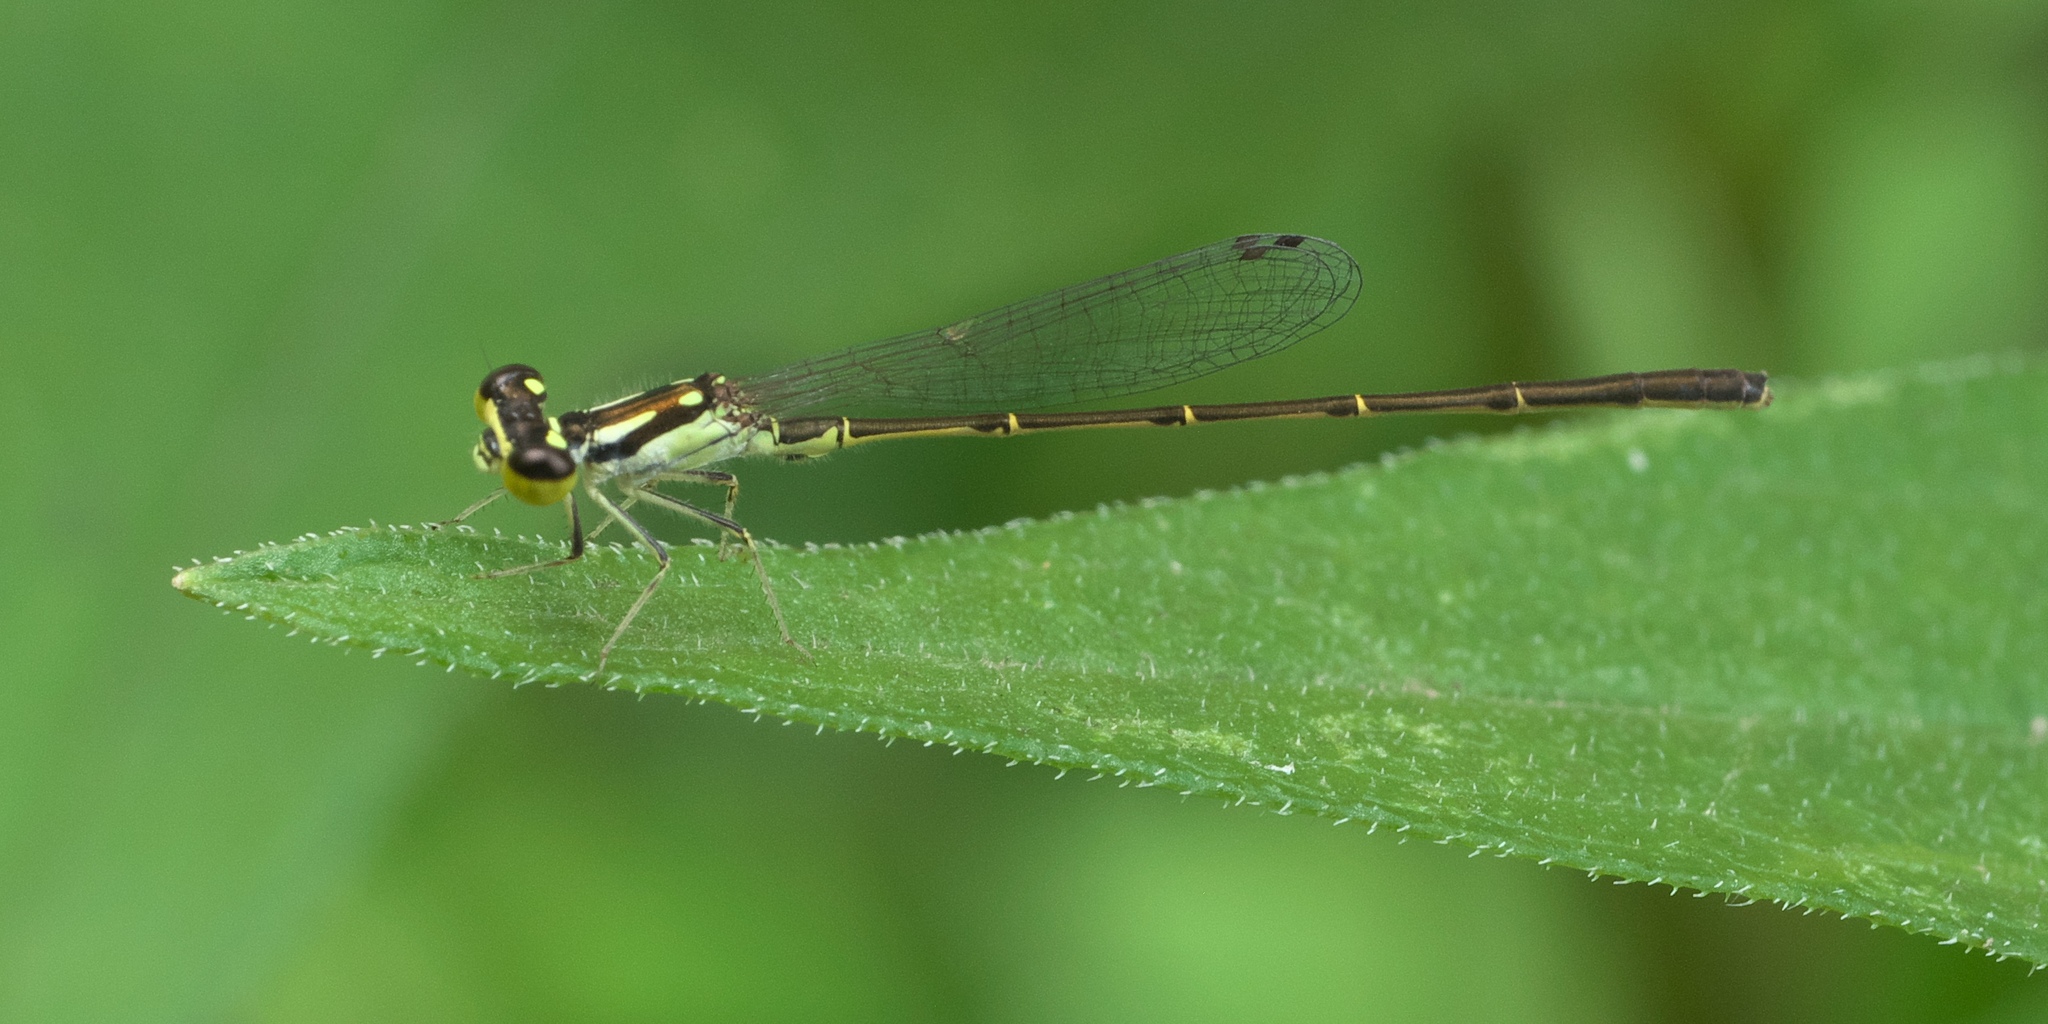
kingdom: Animalia
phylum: Arthropoda
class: Insecta
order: Odonata
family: Coenagrionidae
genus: Ischnura
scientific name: Ischnura posita
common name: Fragile forktail
